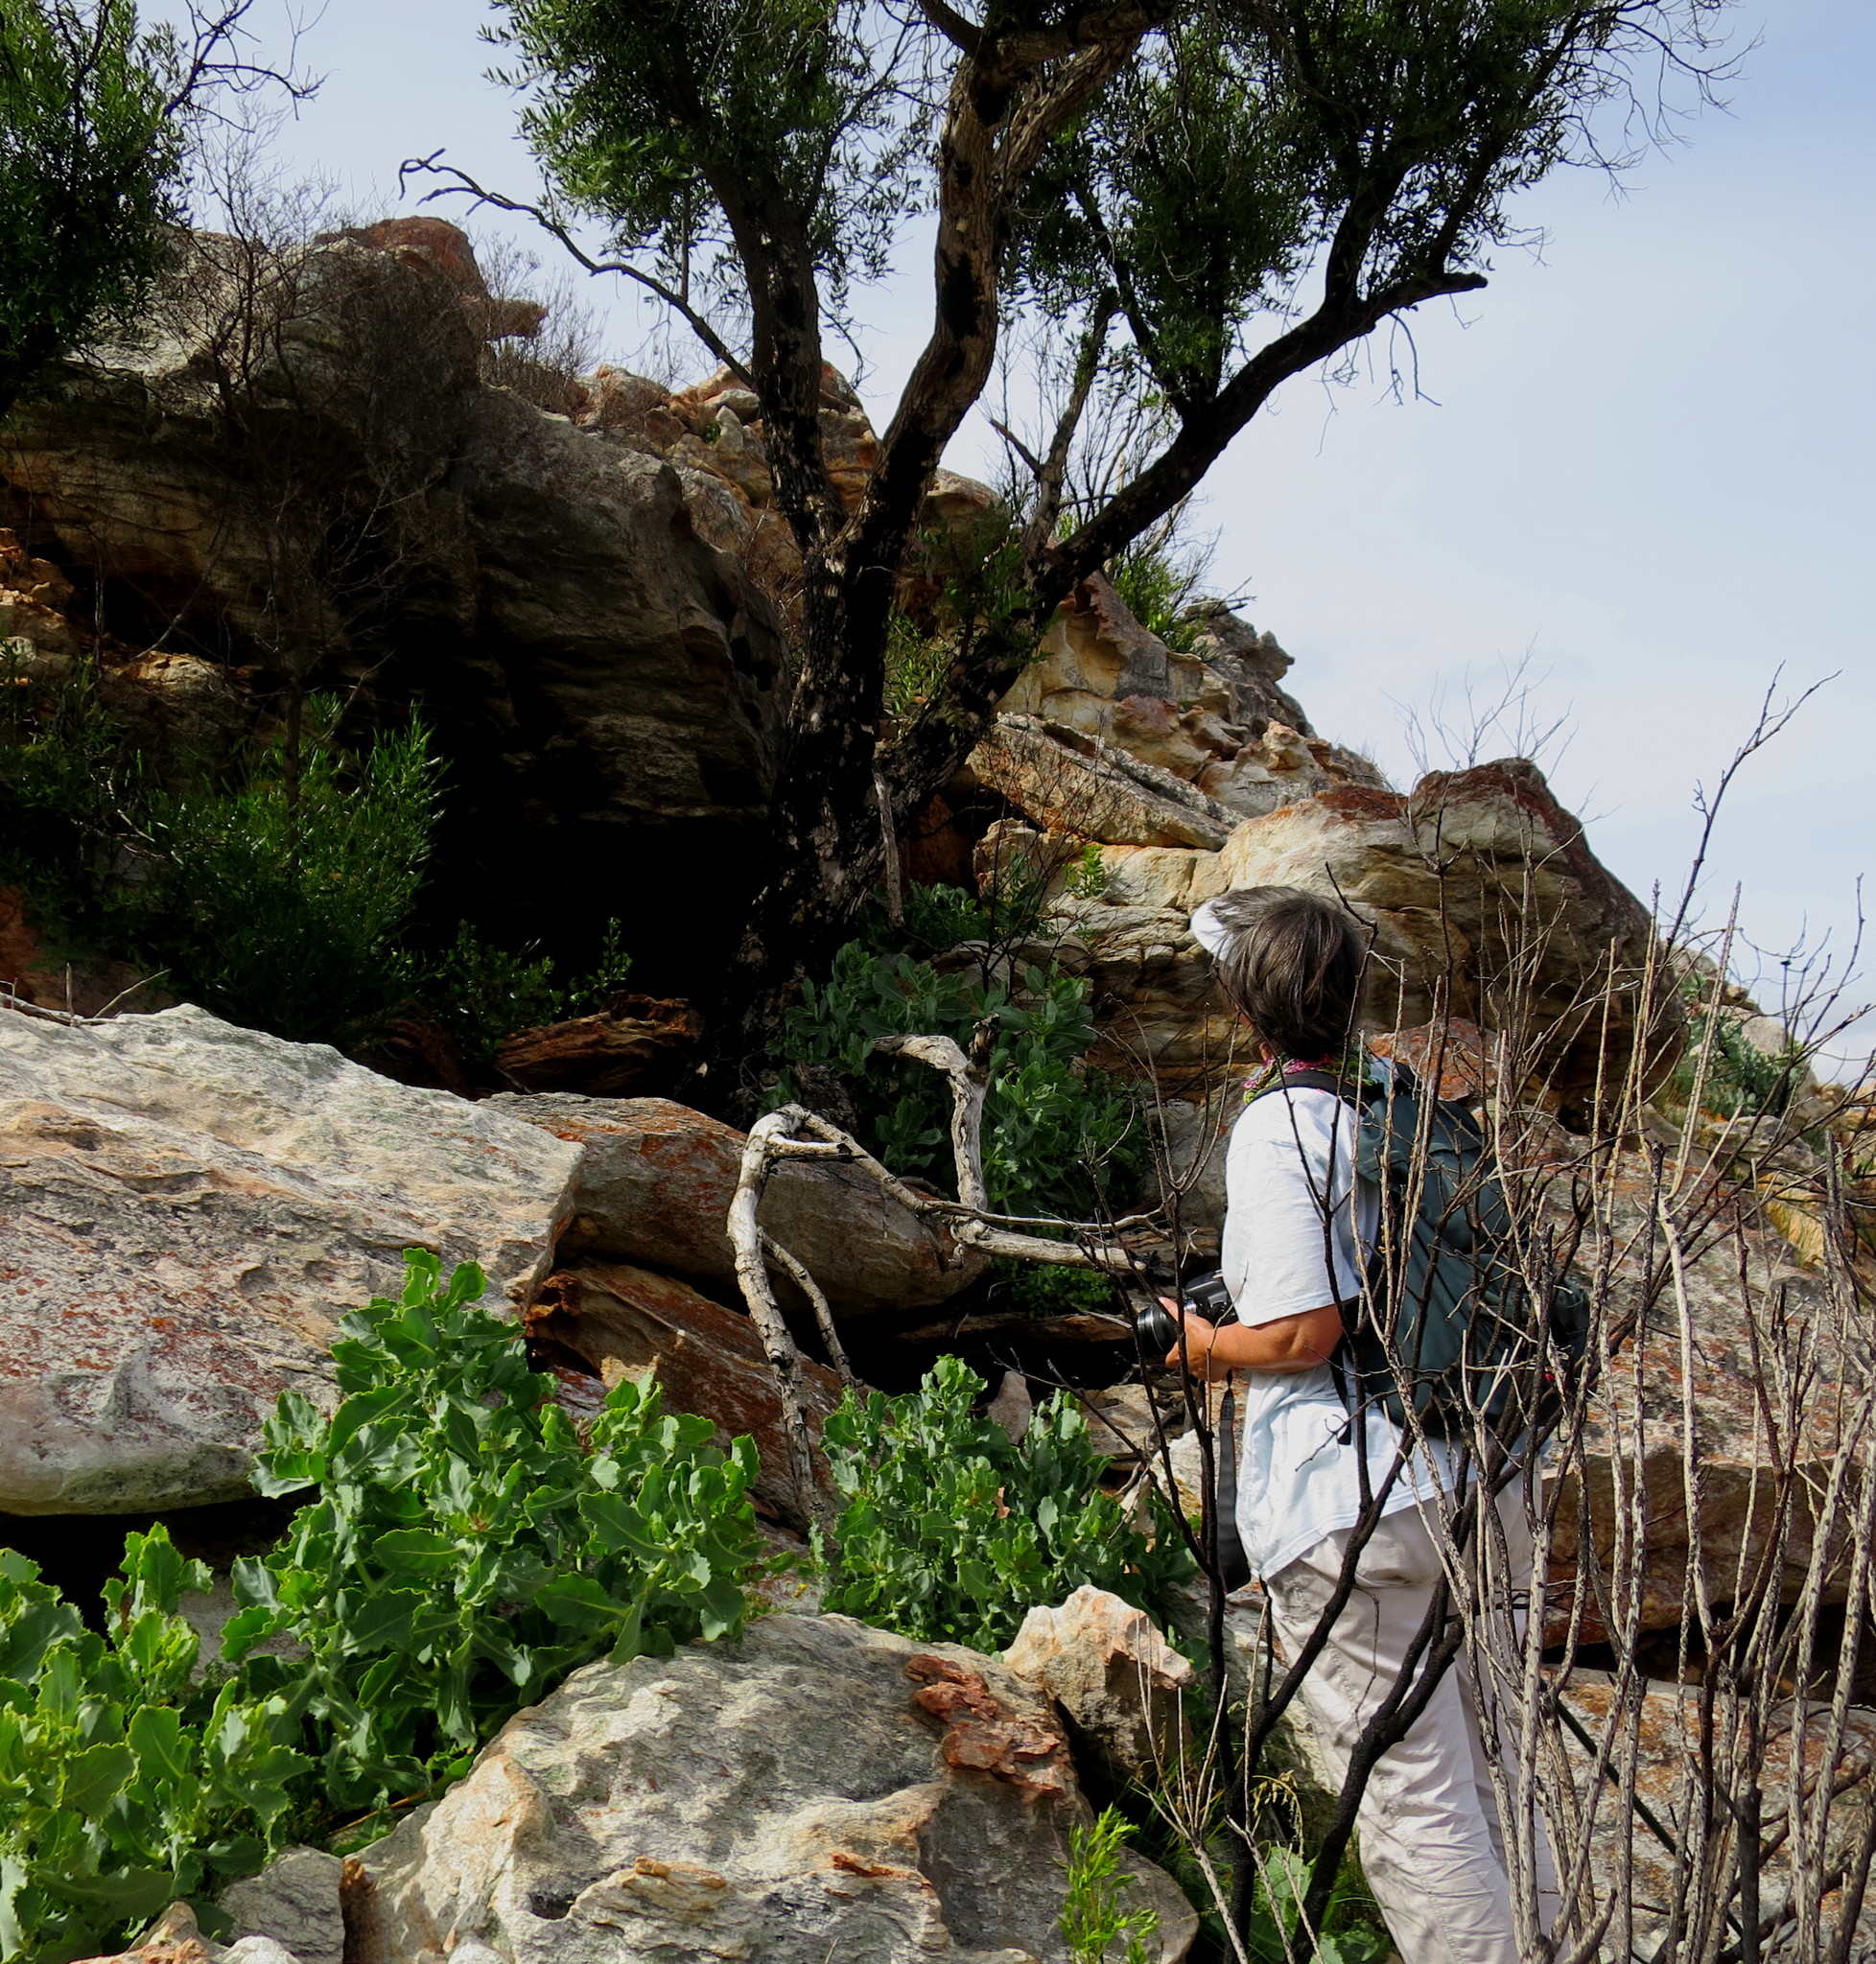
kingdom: Plantae
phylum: Tracheophyta
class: Magnoliopsida
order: Celastrales
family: Celastraceae
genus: Gymnosporia
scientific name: Gymnosporia laurina
